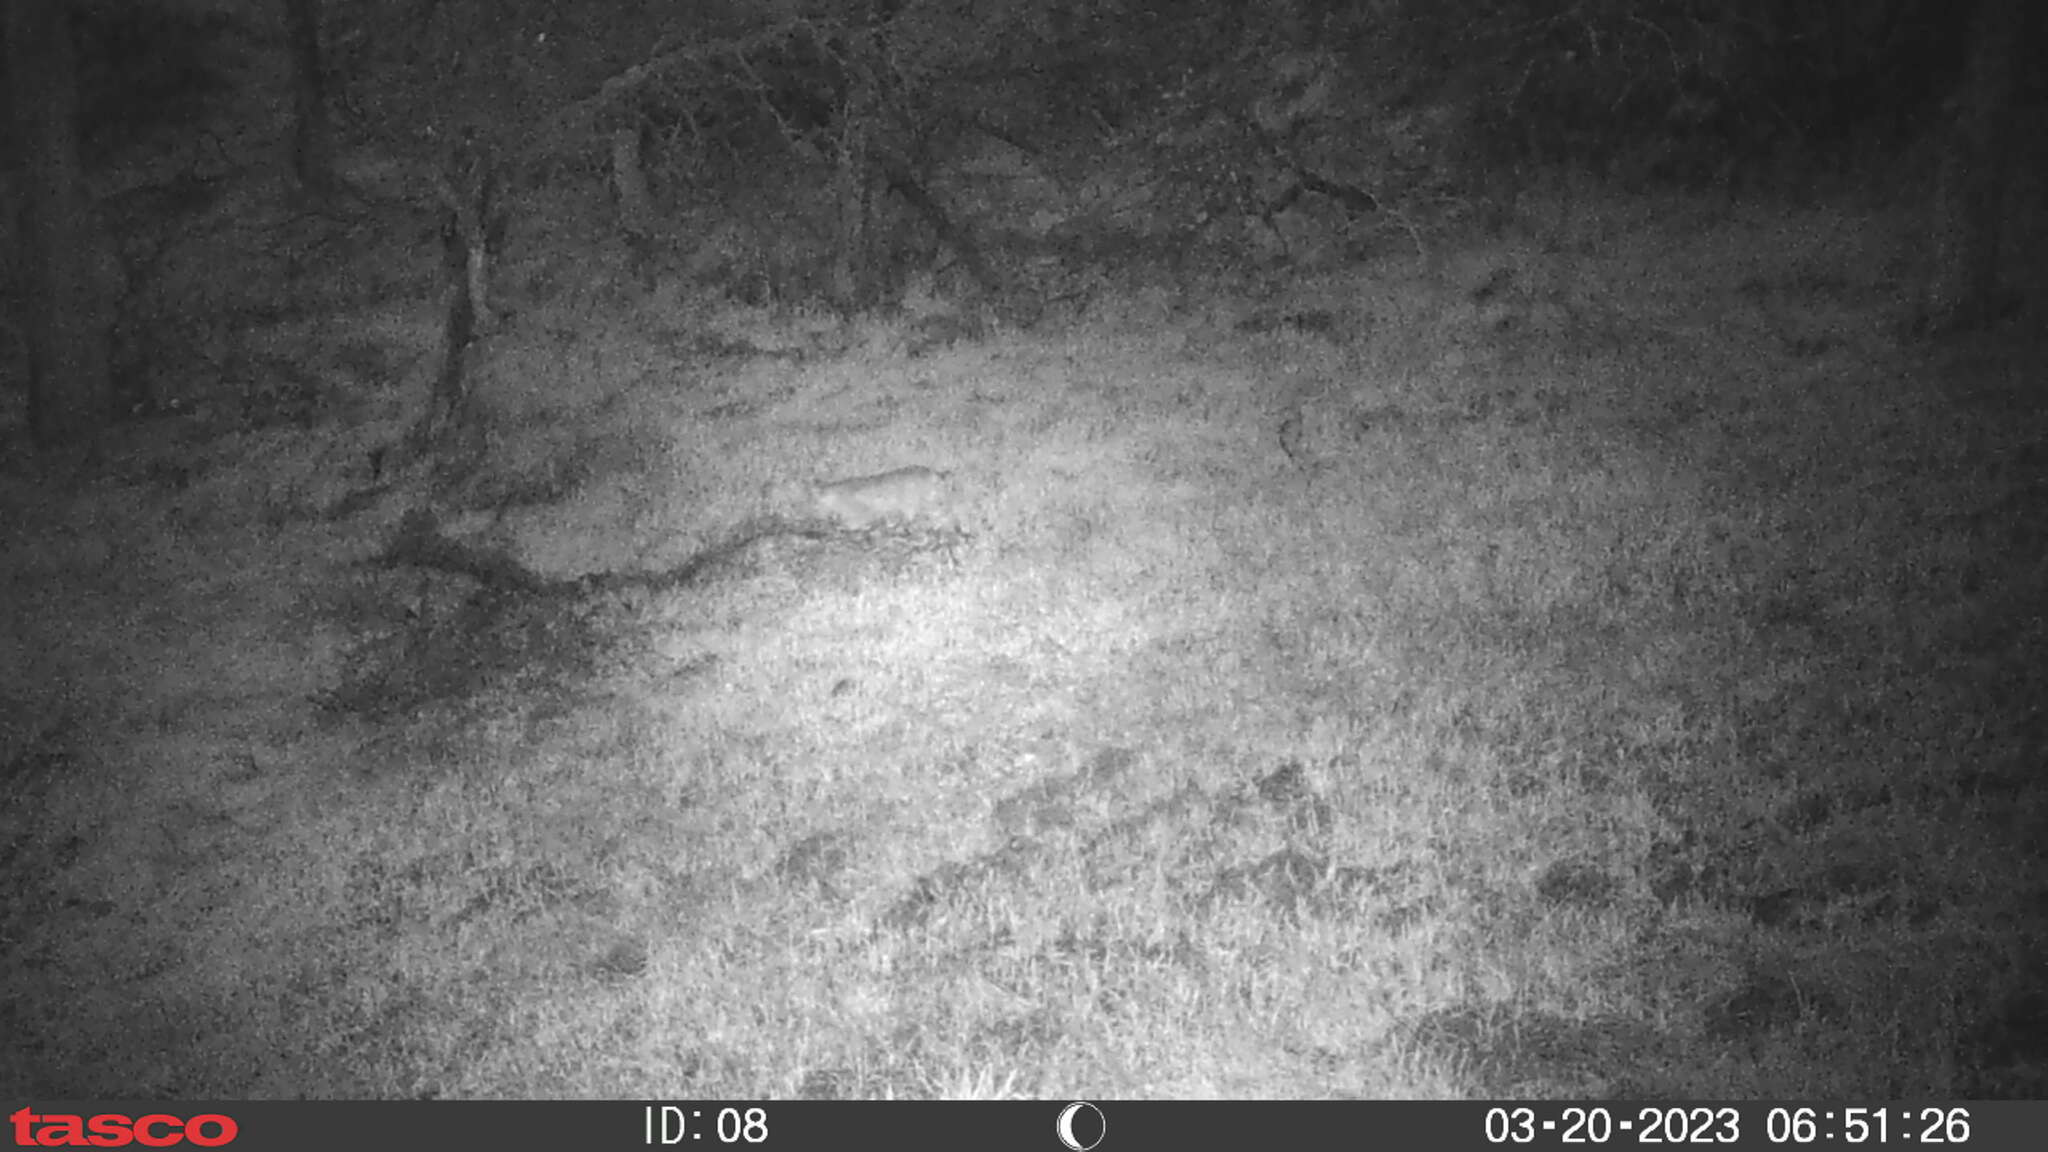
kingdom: Animalia
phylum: Chordata
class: Mammalia
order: Carnivora
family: Felidae
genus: Lynx
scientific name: Lynx rufus
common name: Bobcat
